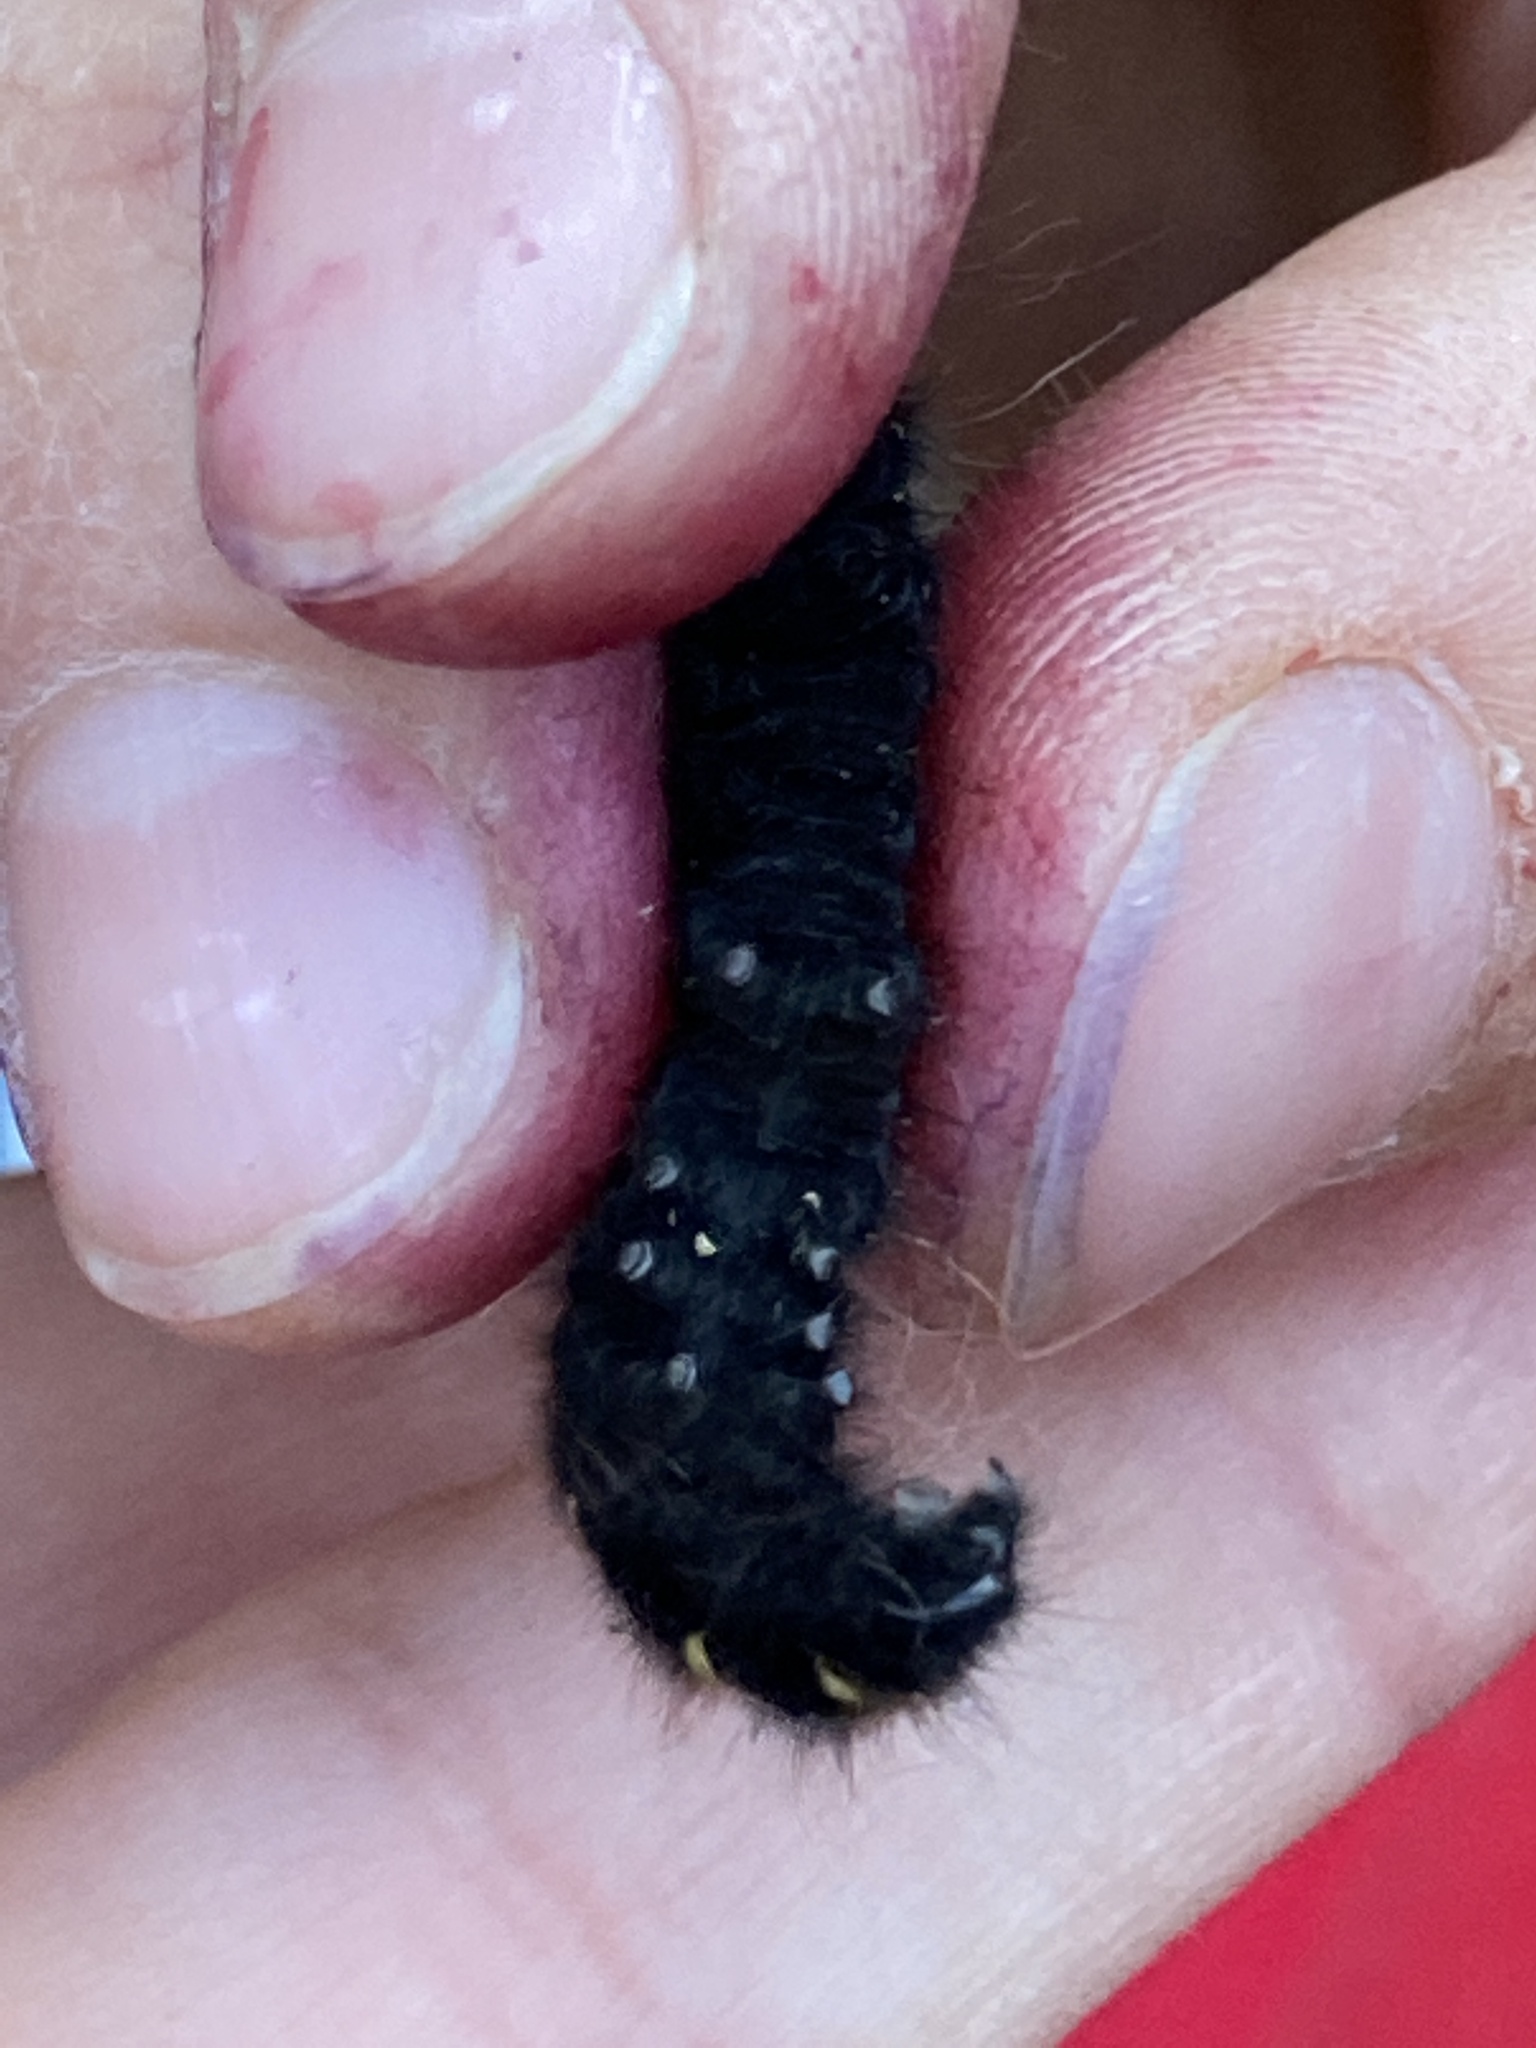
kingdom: Animalia
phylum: Arthropoda
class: Insecta
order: Lepidoptera
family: Lasiocampidae
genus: Macrothylacia
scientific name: Macrothylacia rubi
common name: Fox moth
